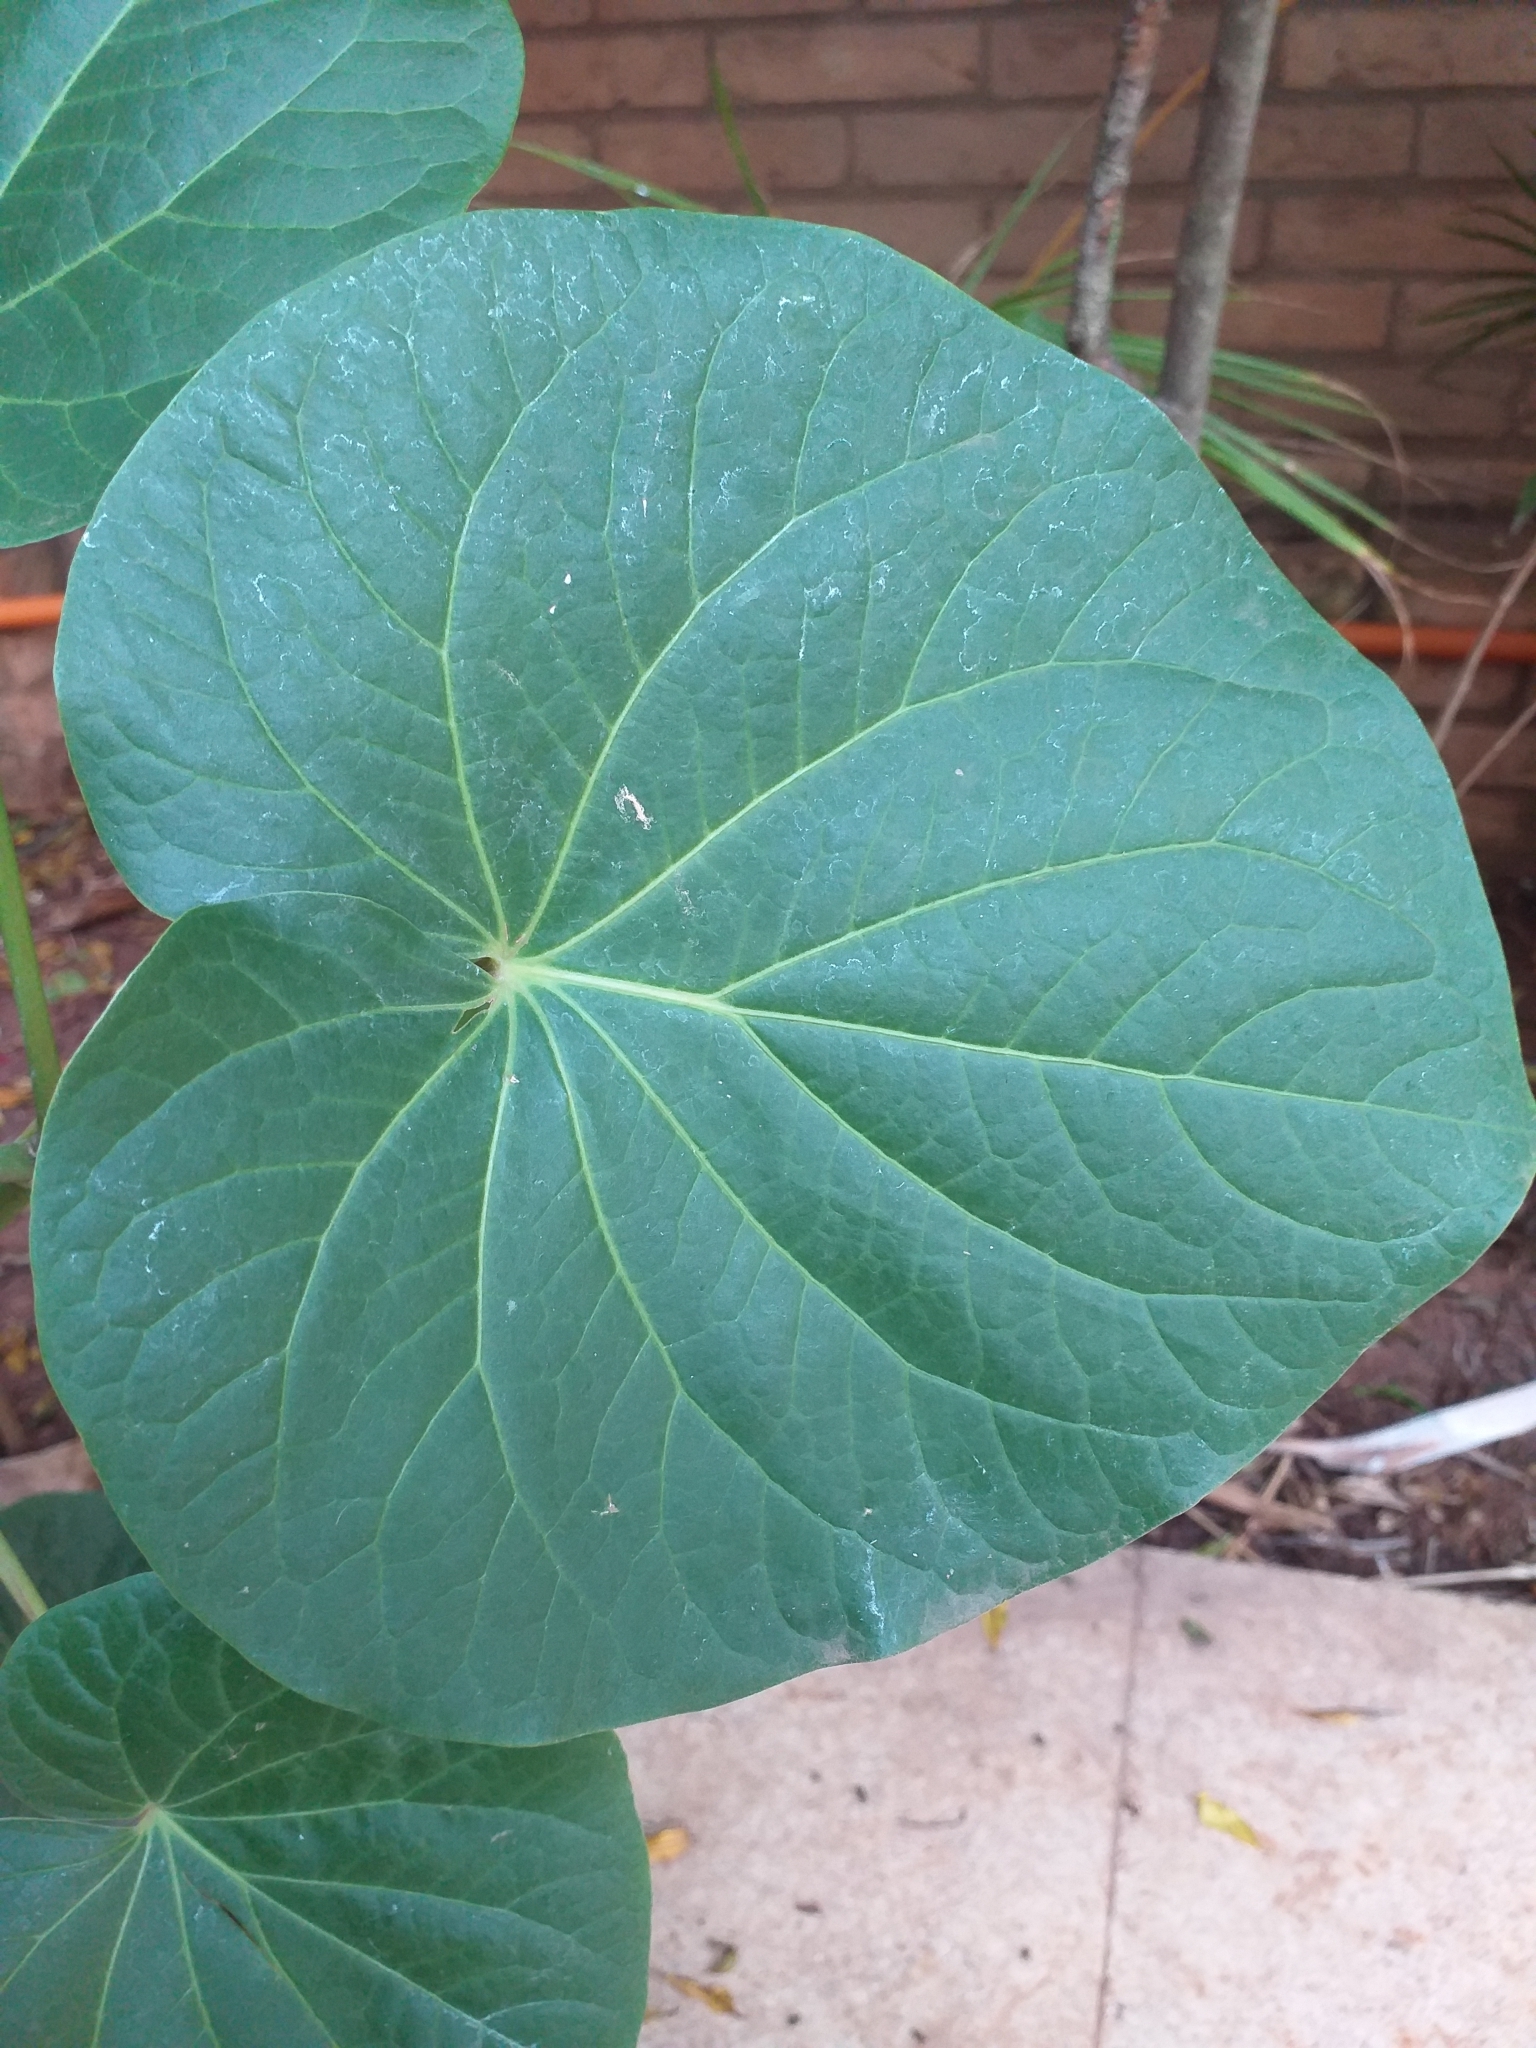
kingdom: Plantae
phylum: Tracheophyta
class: Magnoliopsida
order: Piperales
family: Piperaceae
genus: Piper
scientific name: Piper regnellii
